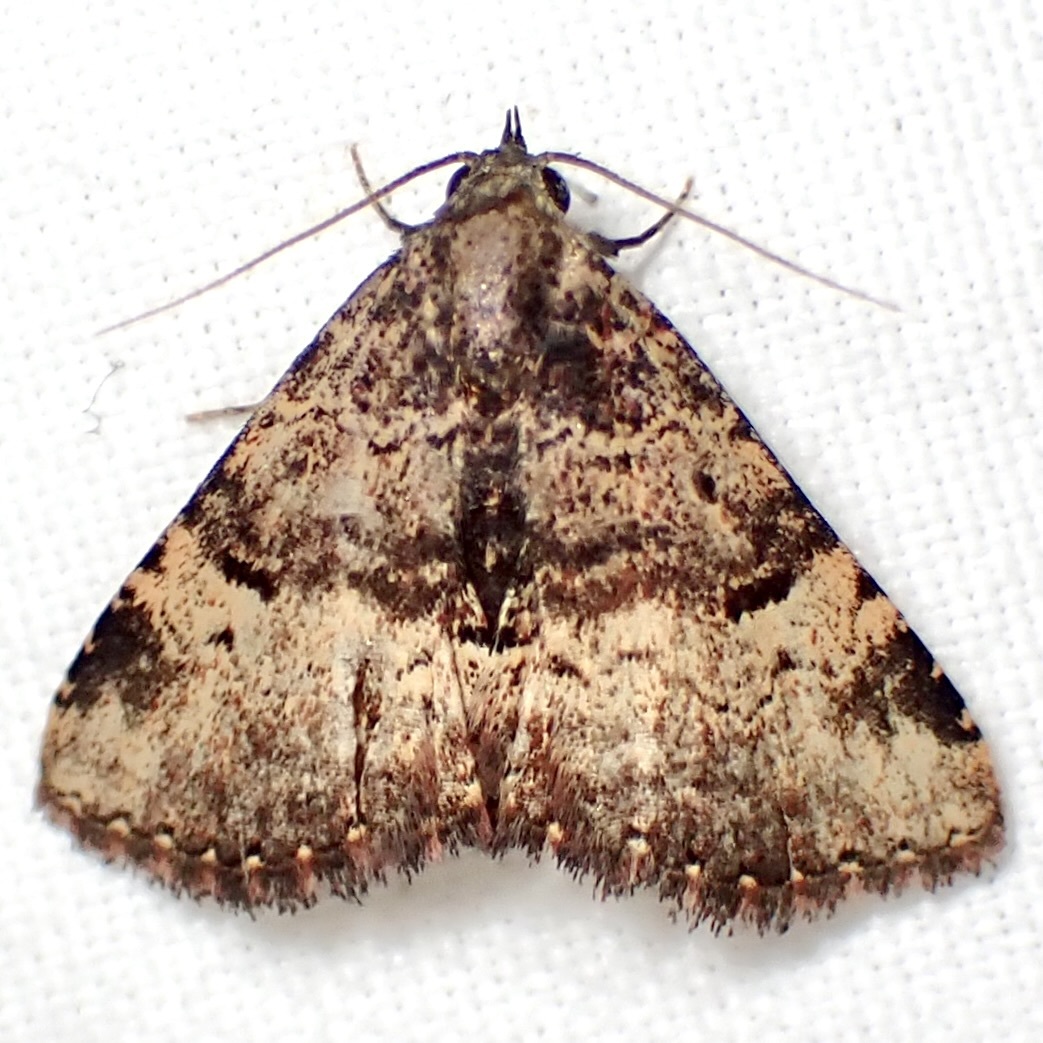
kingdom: Animalia
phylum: Arthropoda
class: Insecta
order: Lepidoptera
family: Erebidae
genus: Metalectra
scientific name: Metalectra edilis
